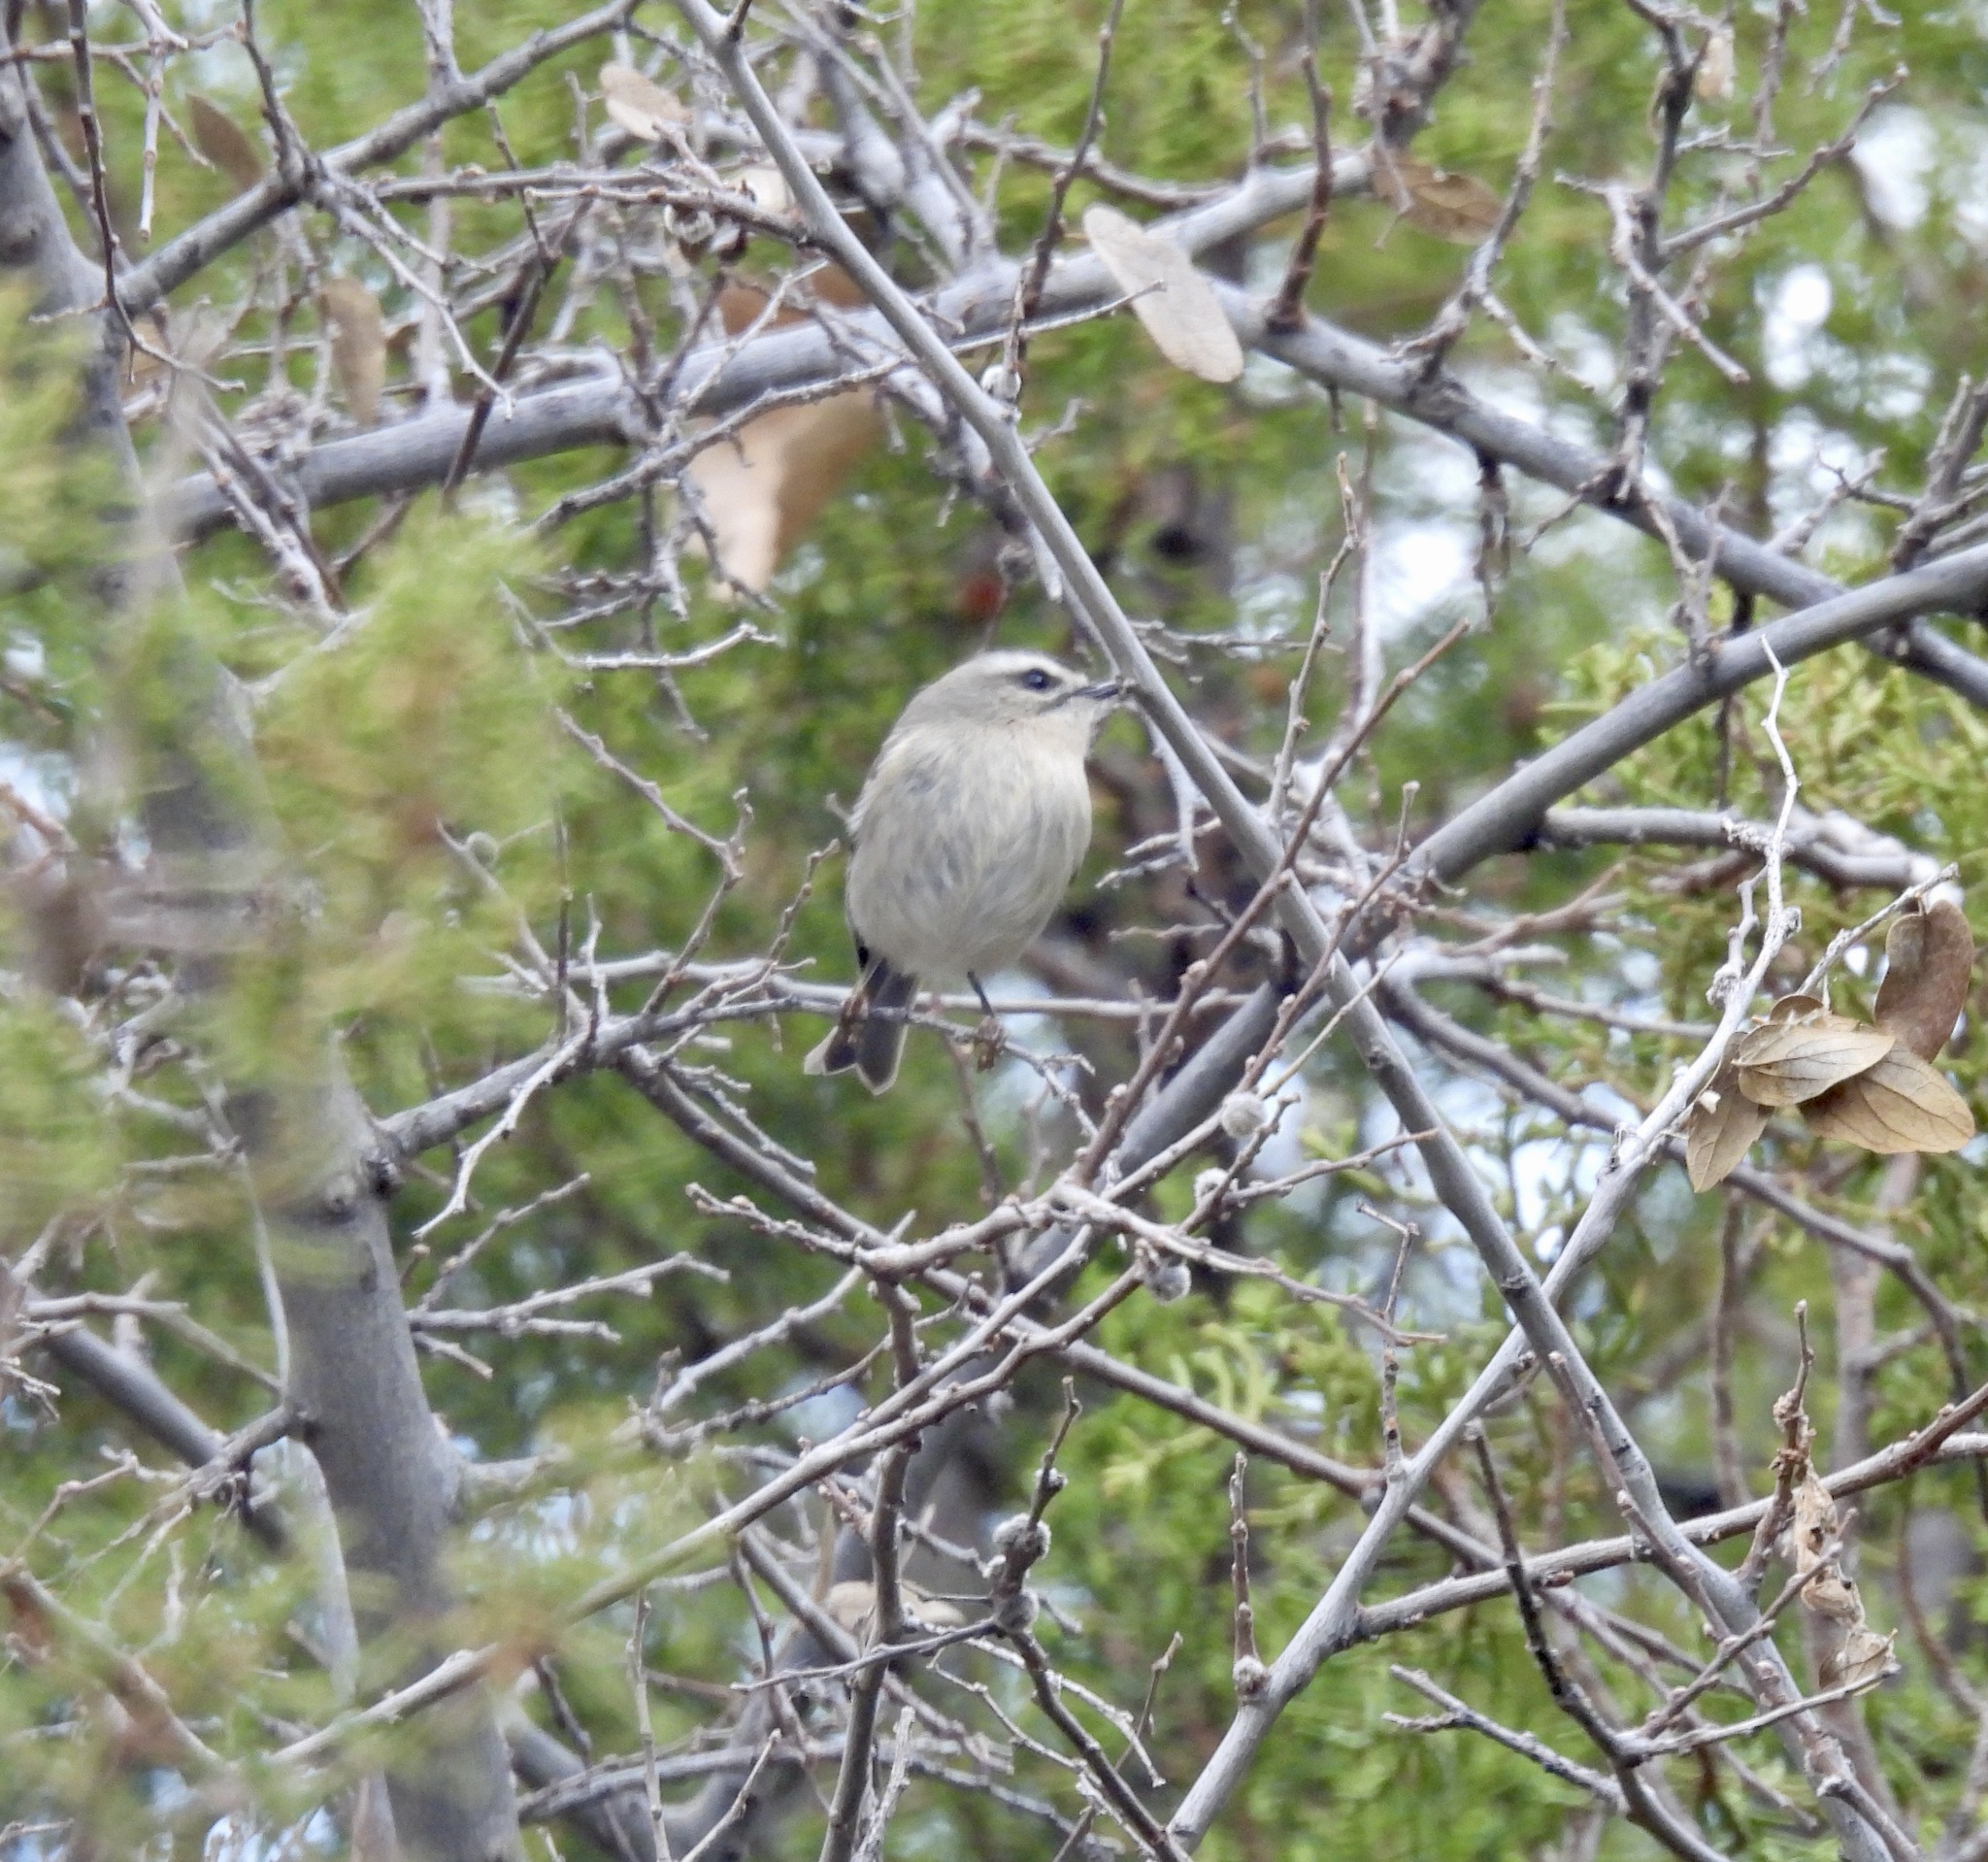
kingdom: Animalia
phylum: Chordata
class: Aves
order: Passeriformes
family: Regulidae
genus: Regulus
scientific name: Regulus satrapa
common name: Golden-crowned kinglet
